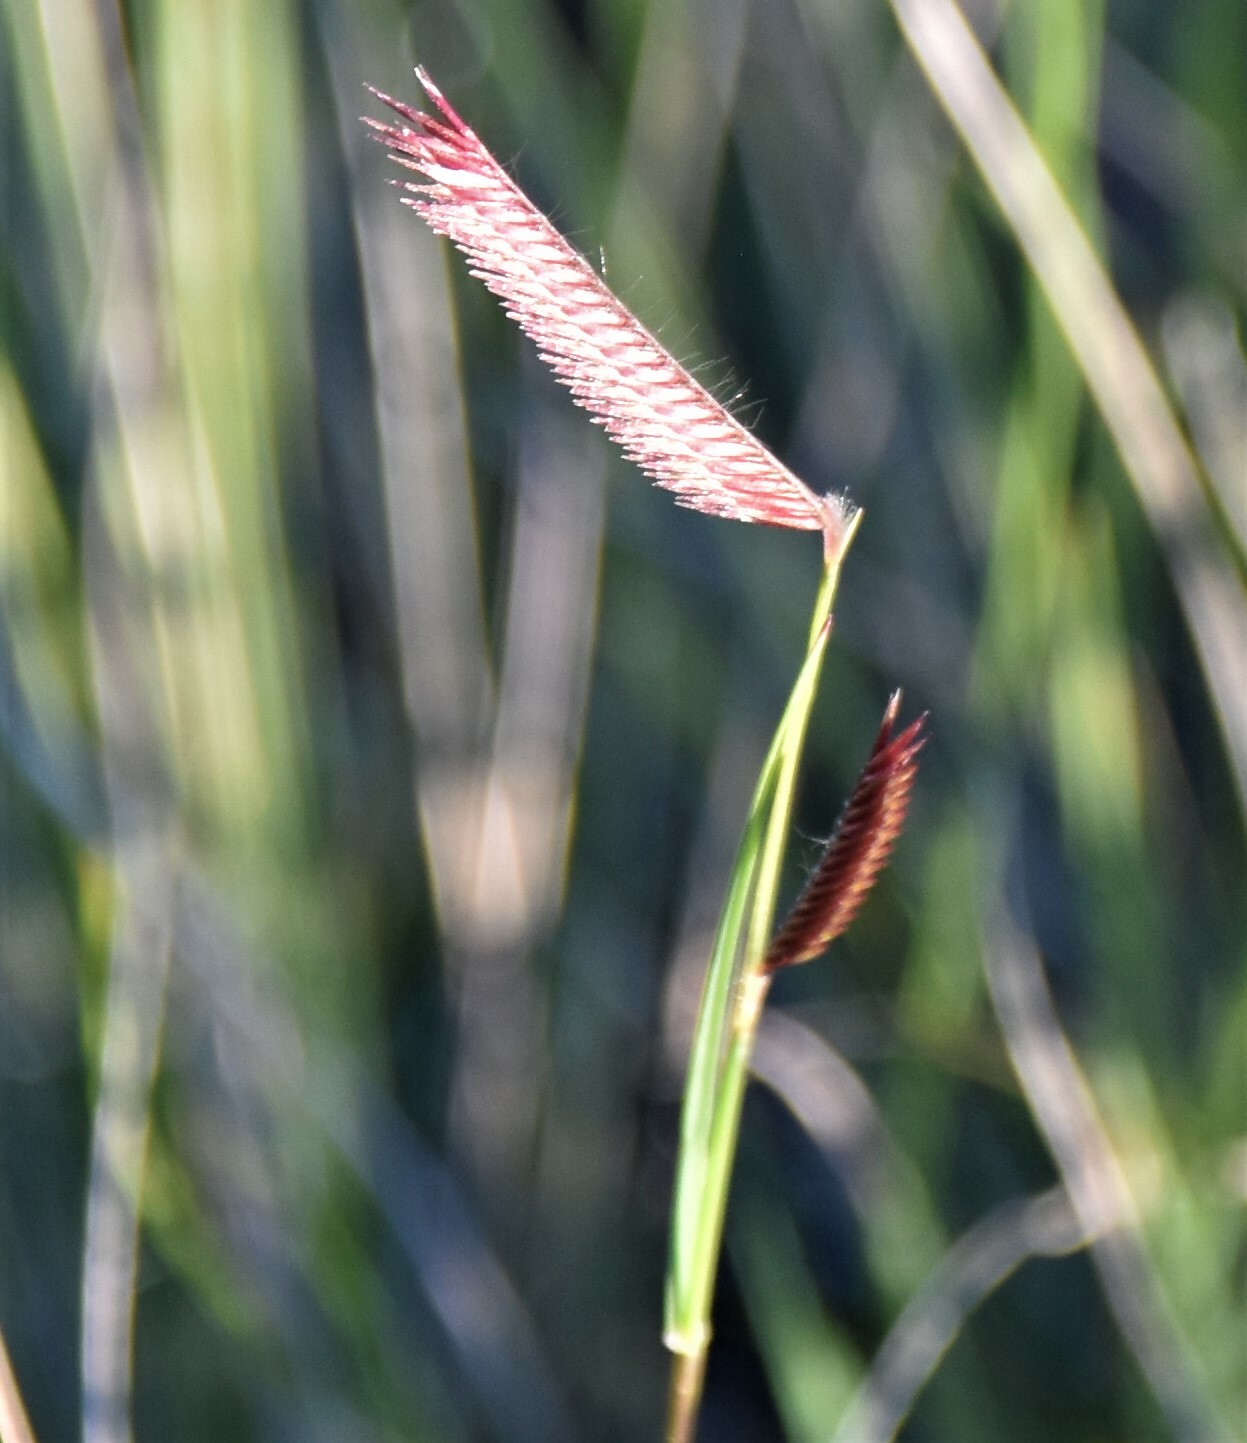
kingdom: Plantae
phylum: Tracheophyta
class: Liliopsida
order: Poales
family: Poaceae
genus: Bouteloua
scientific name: Bouteloua gracilis
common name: Blue grama
